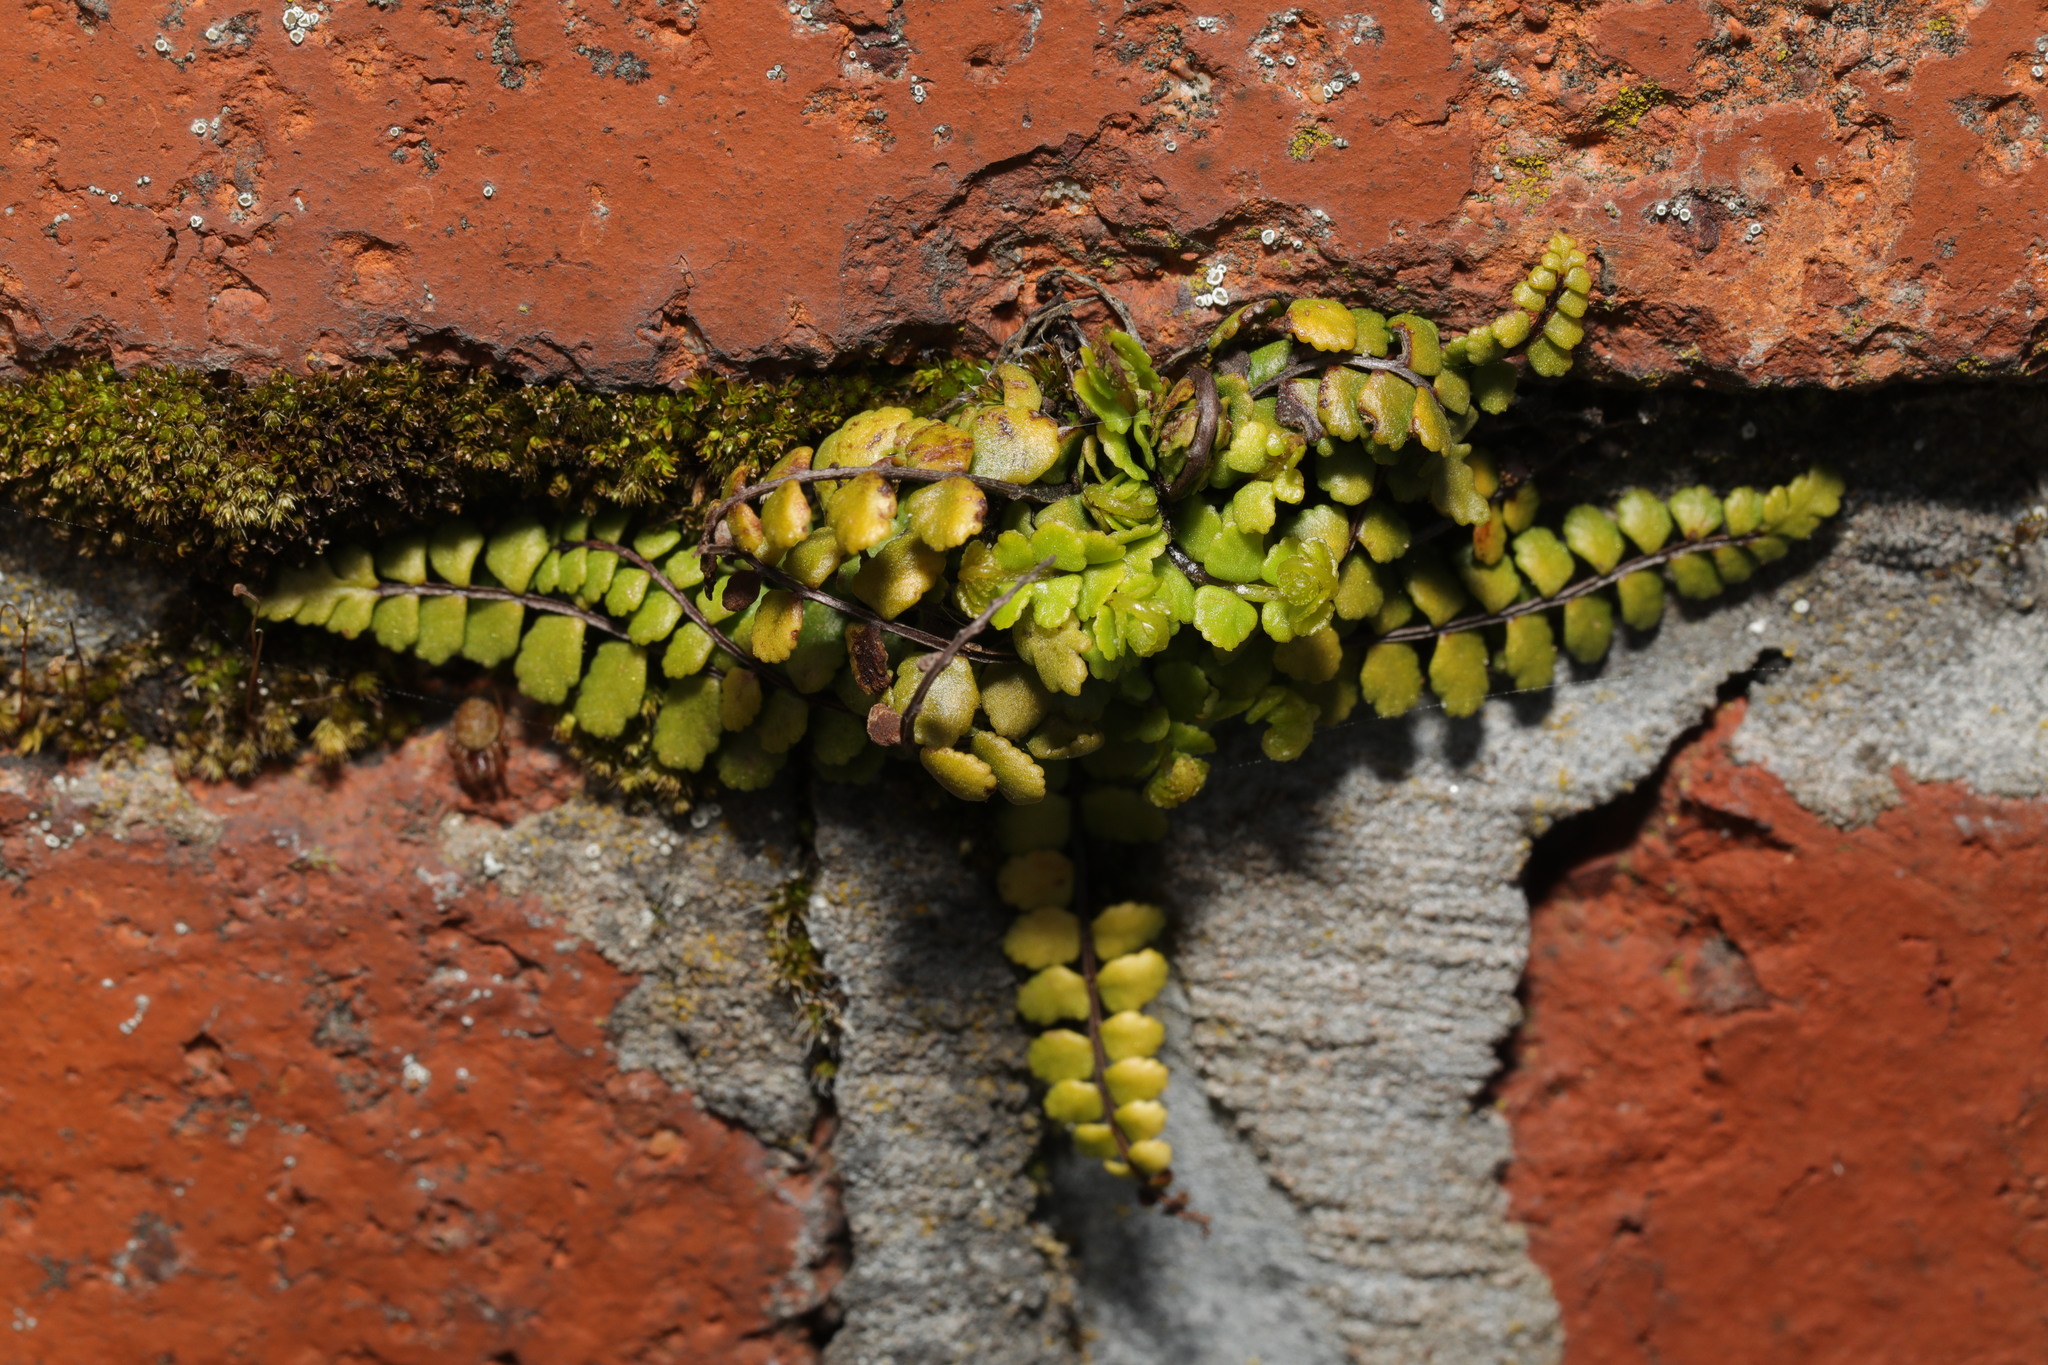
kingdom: Plantae
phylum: Tracheophyta
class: Polypodiopsida
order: Polypodiales
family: Aspleniaceae
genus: Asplenium
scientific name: Asplenium trichomanes
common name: Maidenhair spleenwort
